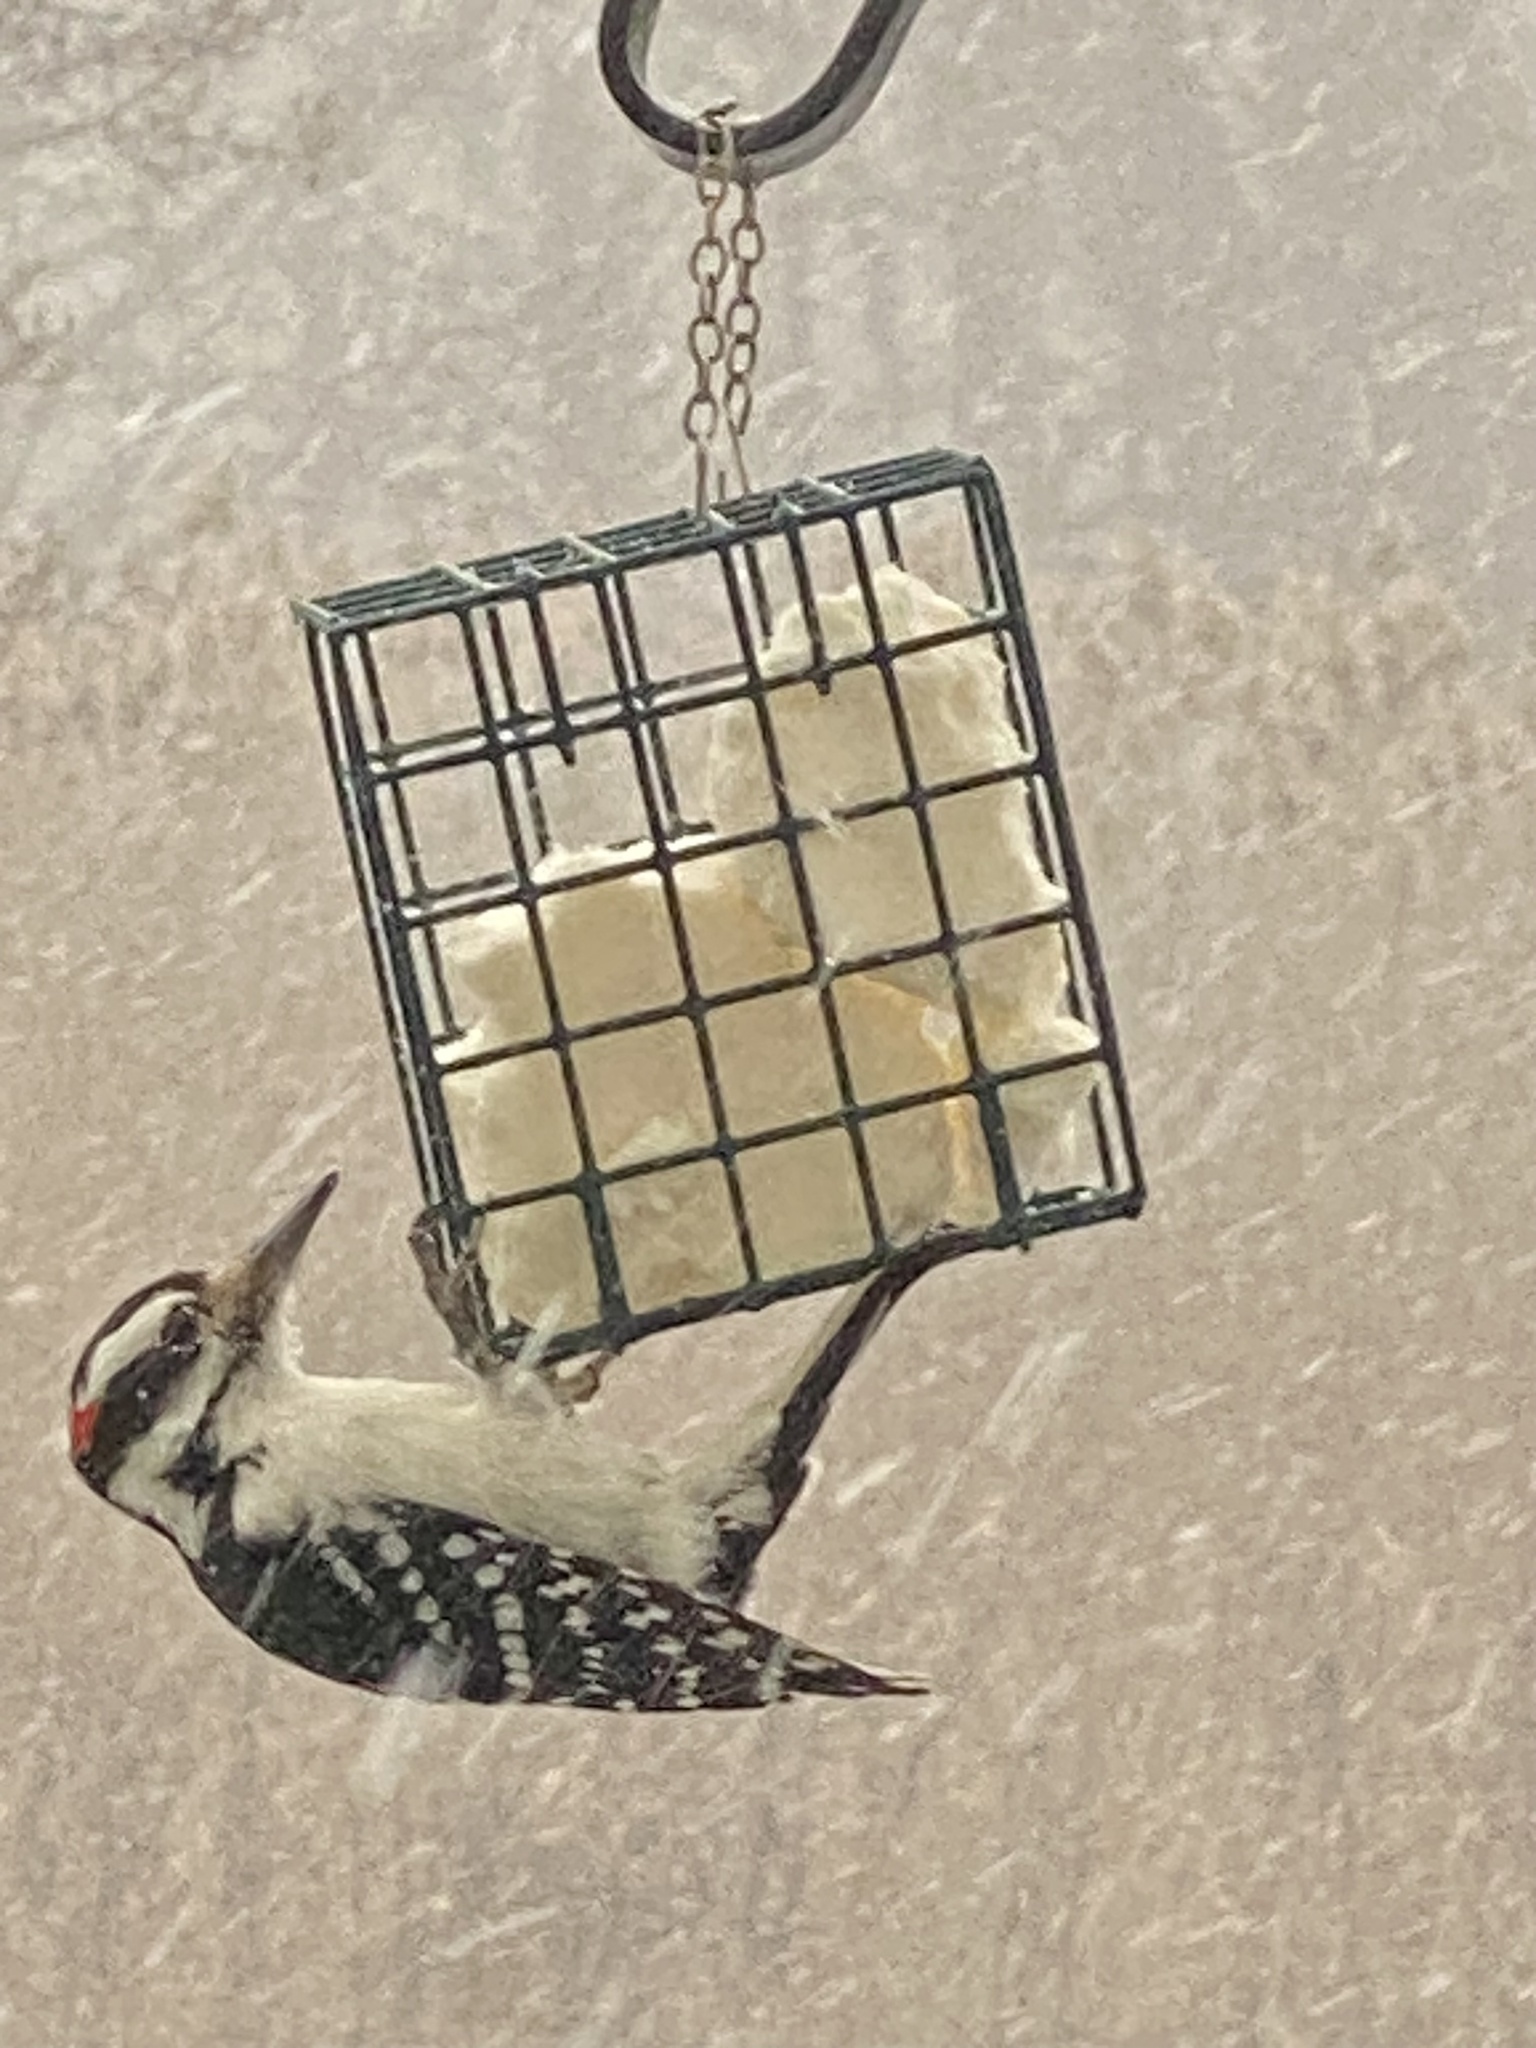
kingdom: Animalia
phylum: Chordata
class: Aves
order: Piciformes
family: Picidae
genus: Leuconotopicus
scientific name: Leuconotopicus villosus
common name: Hairy woodpecker
